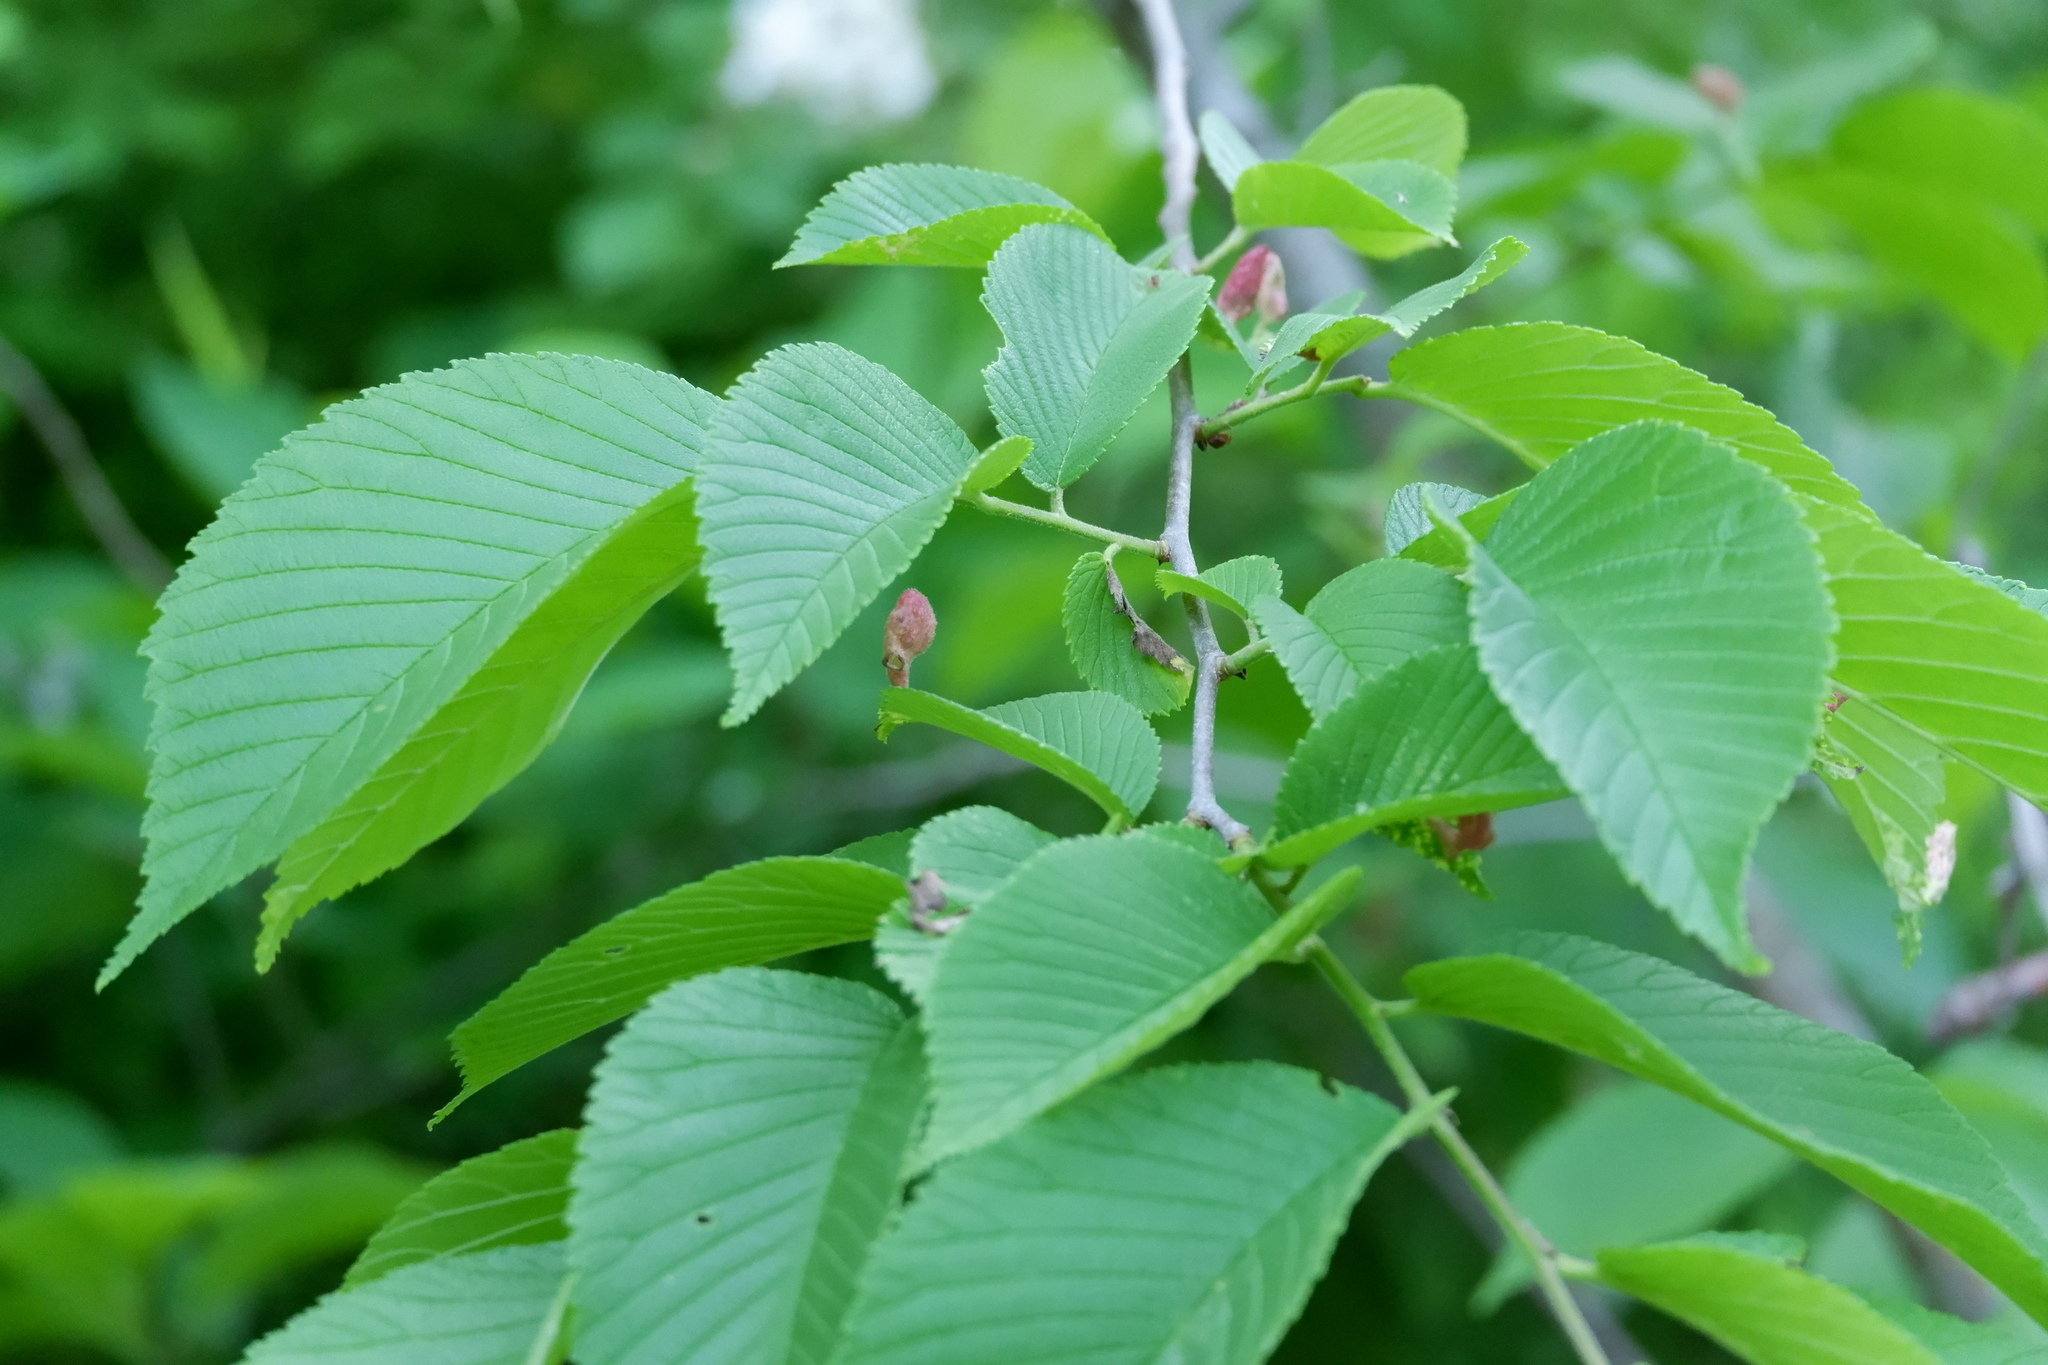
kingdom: Animalia
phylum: Arthropoda
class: Insecta
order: Hemiptera
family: Aphididae
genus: Tetraneura
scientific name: Tetraneura nigriabdominalis
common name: Aphid
